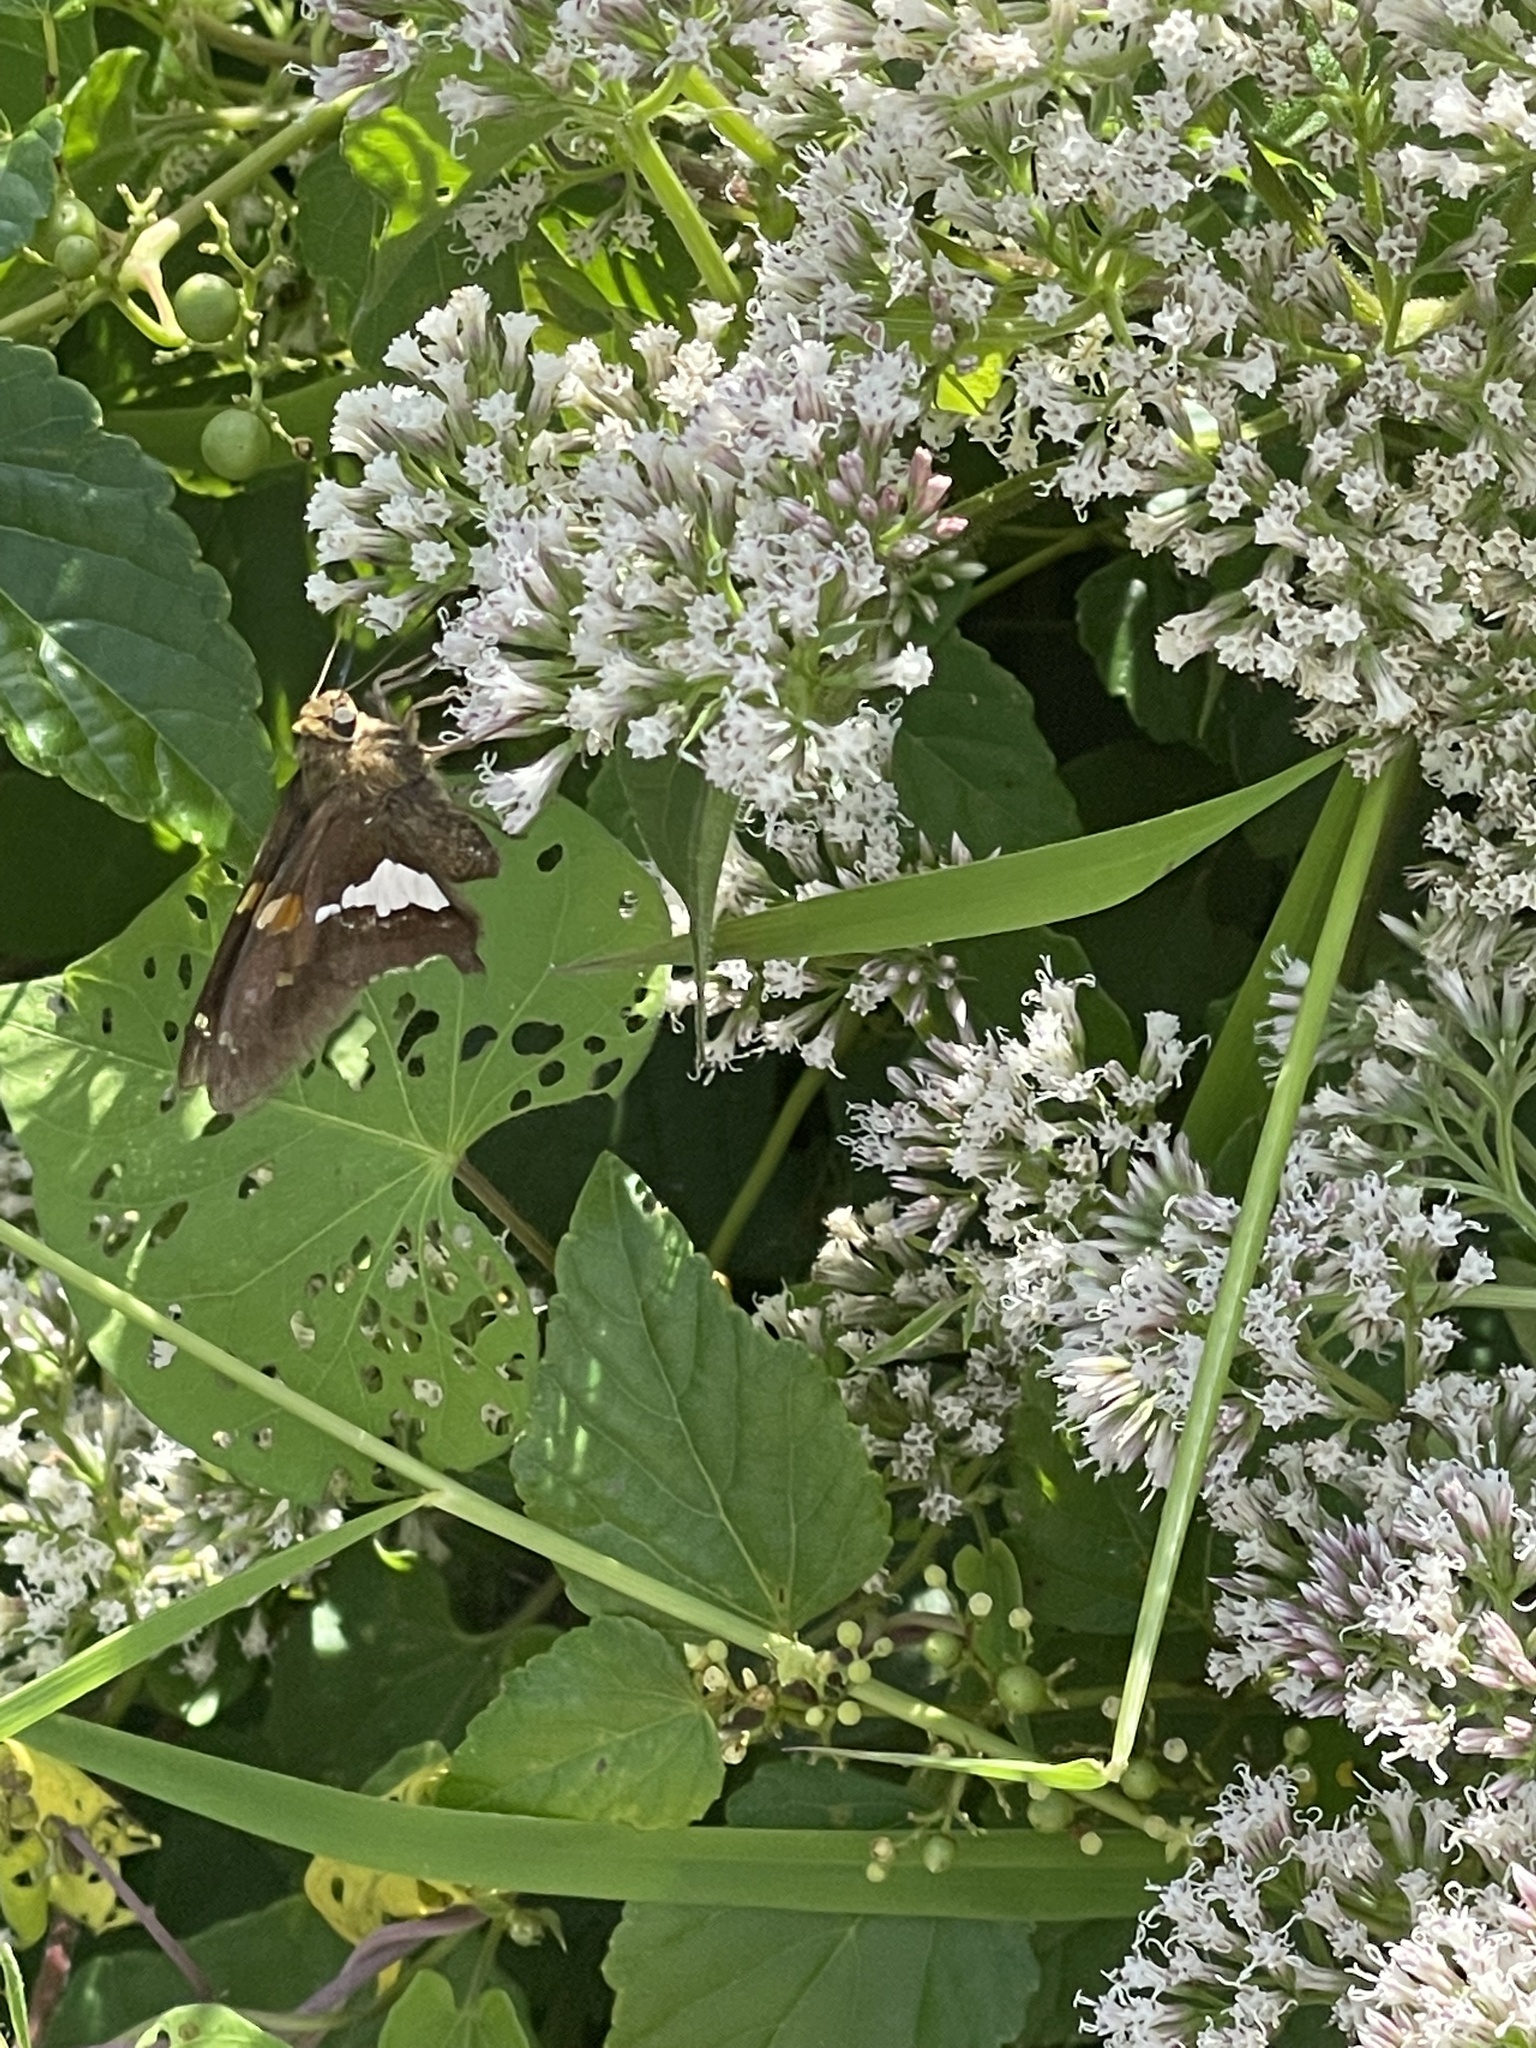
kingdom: Animalia
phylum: Arthropoda
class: Insecta
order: Lepidoptera
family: Hesperiidae
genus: Epargyreus
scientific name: Epargyreus clarus
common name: Silver-spotted skipper
